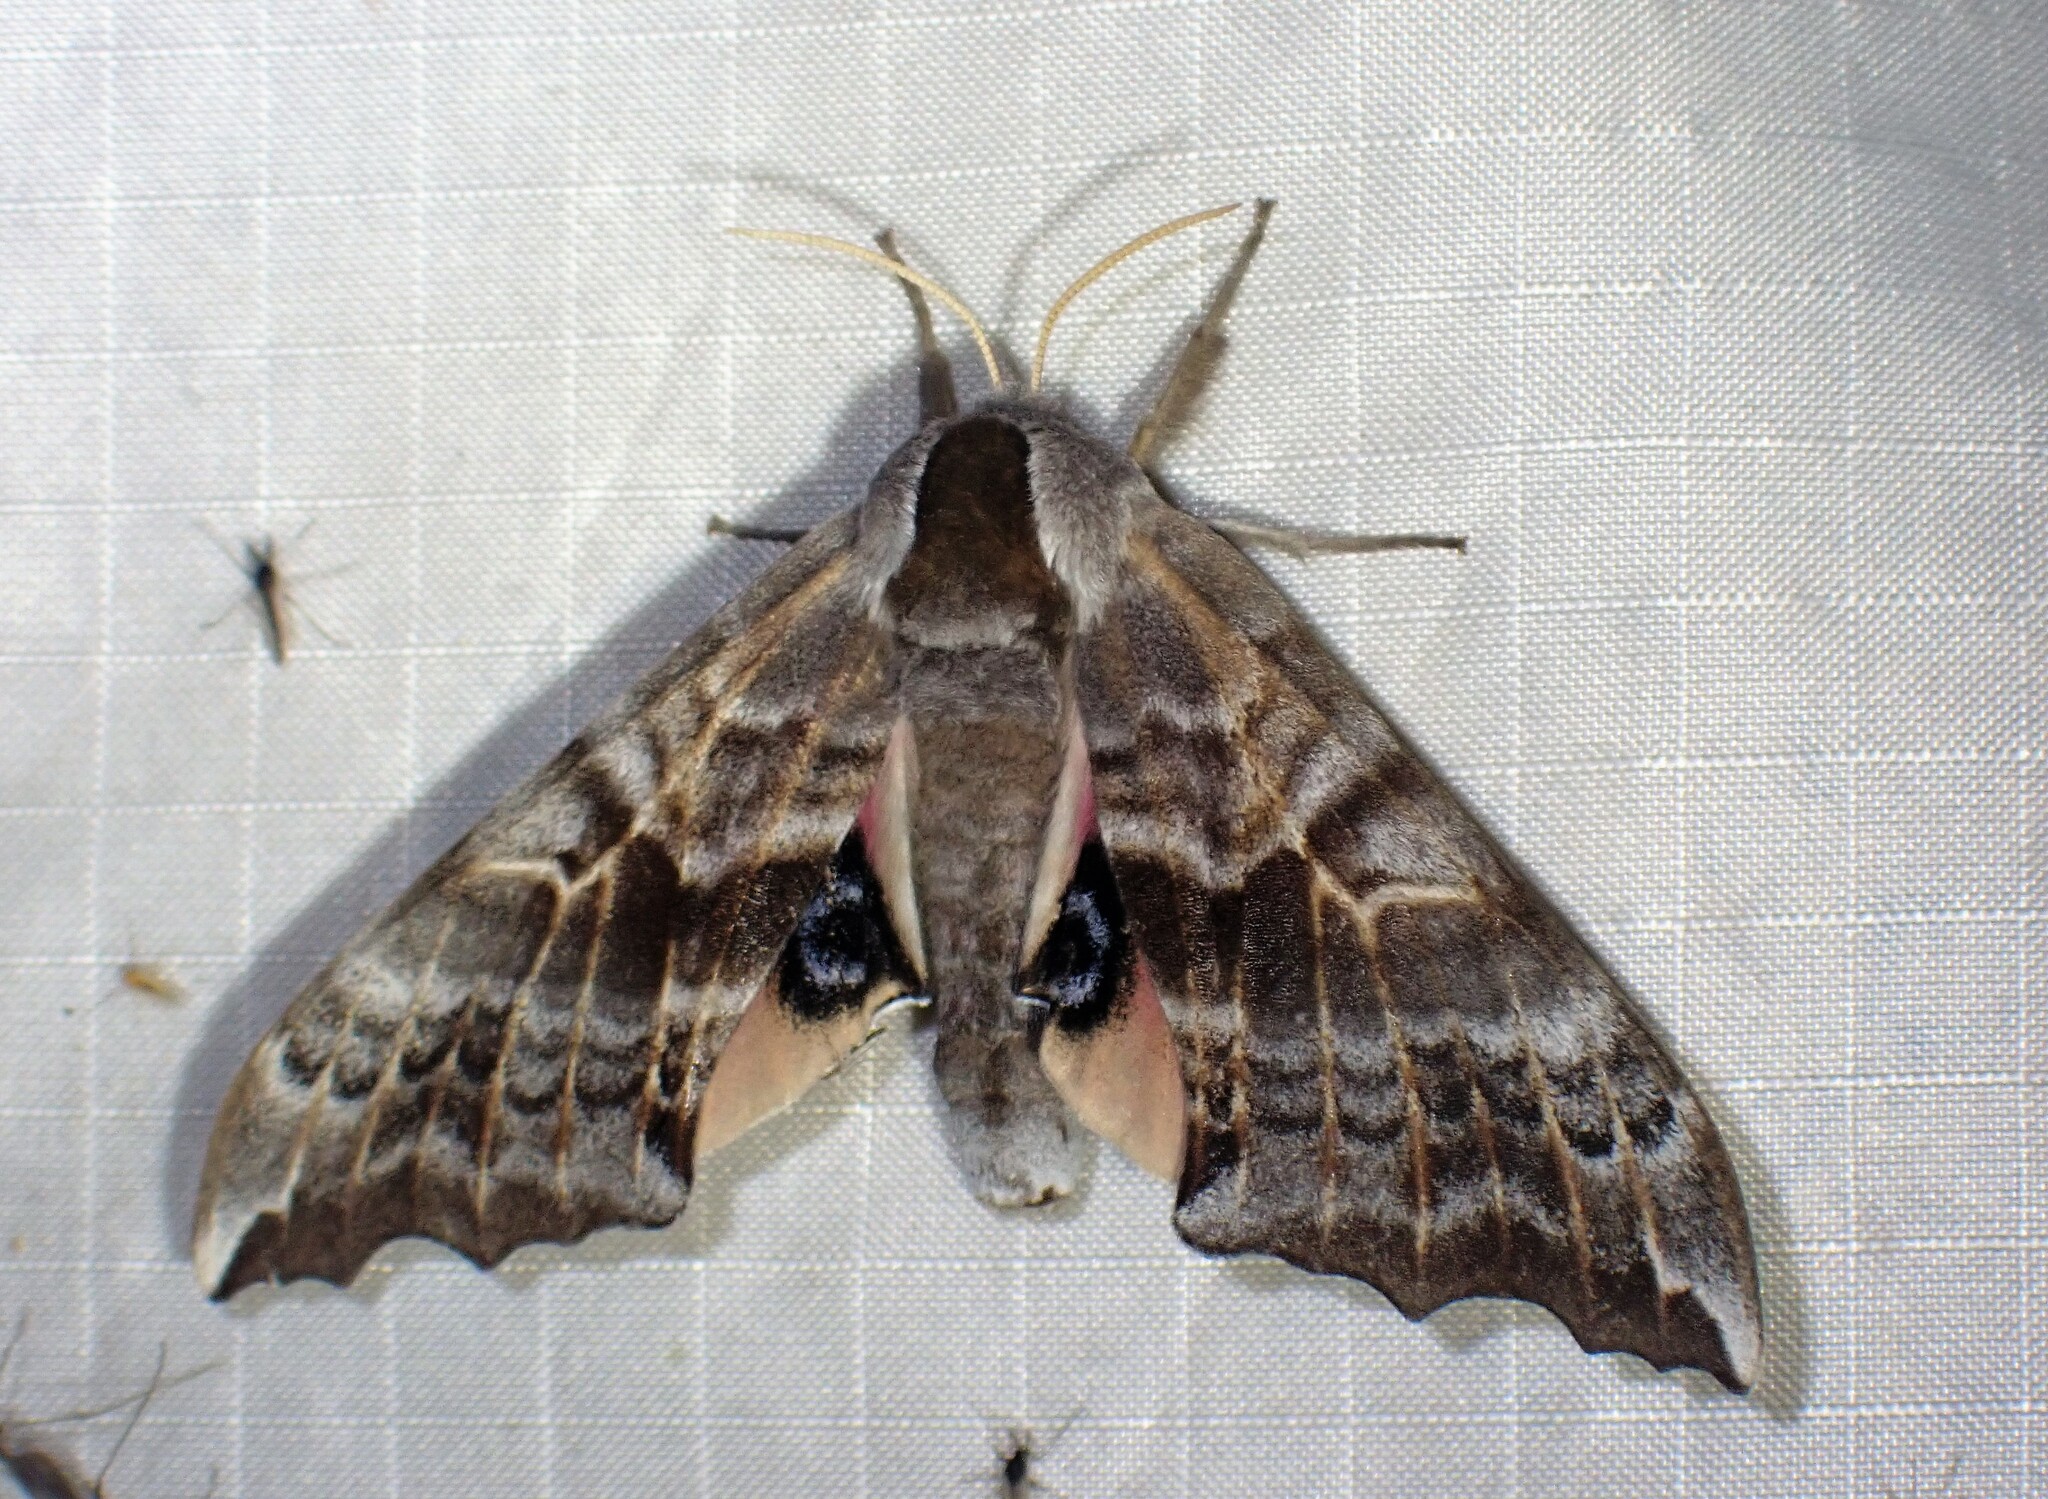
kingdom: Animalia
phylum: Arthropoda
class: Insecta
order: Lepidoptera
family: Sphingidae
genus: Smerinthus
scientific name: Smerinthus cerisyi
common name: Cerisy's sphinx moth
